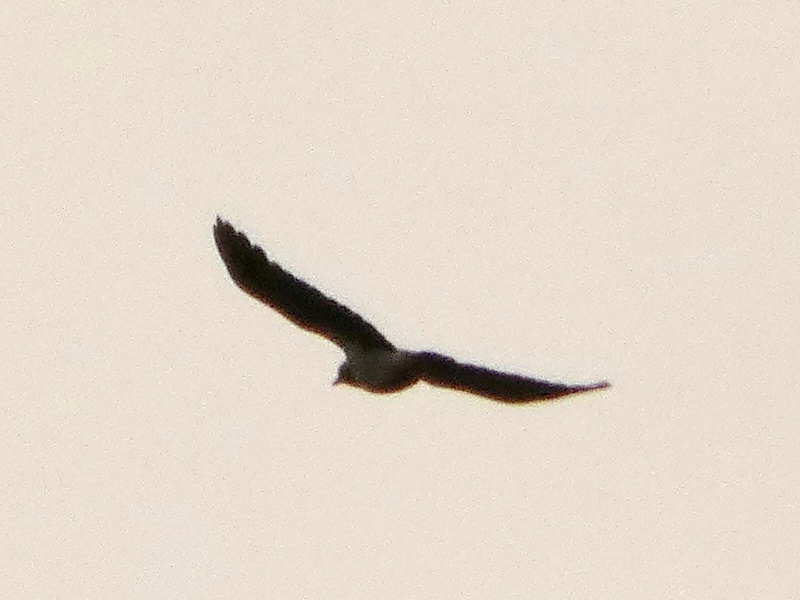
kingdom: Animalia
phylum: Chordata
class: Aves
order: Passeriformes
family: Corvidae
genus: Corvus
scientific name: Corvus cornix
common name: Hooded crow
